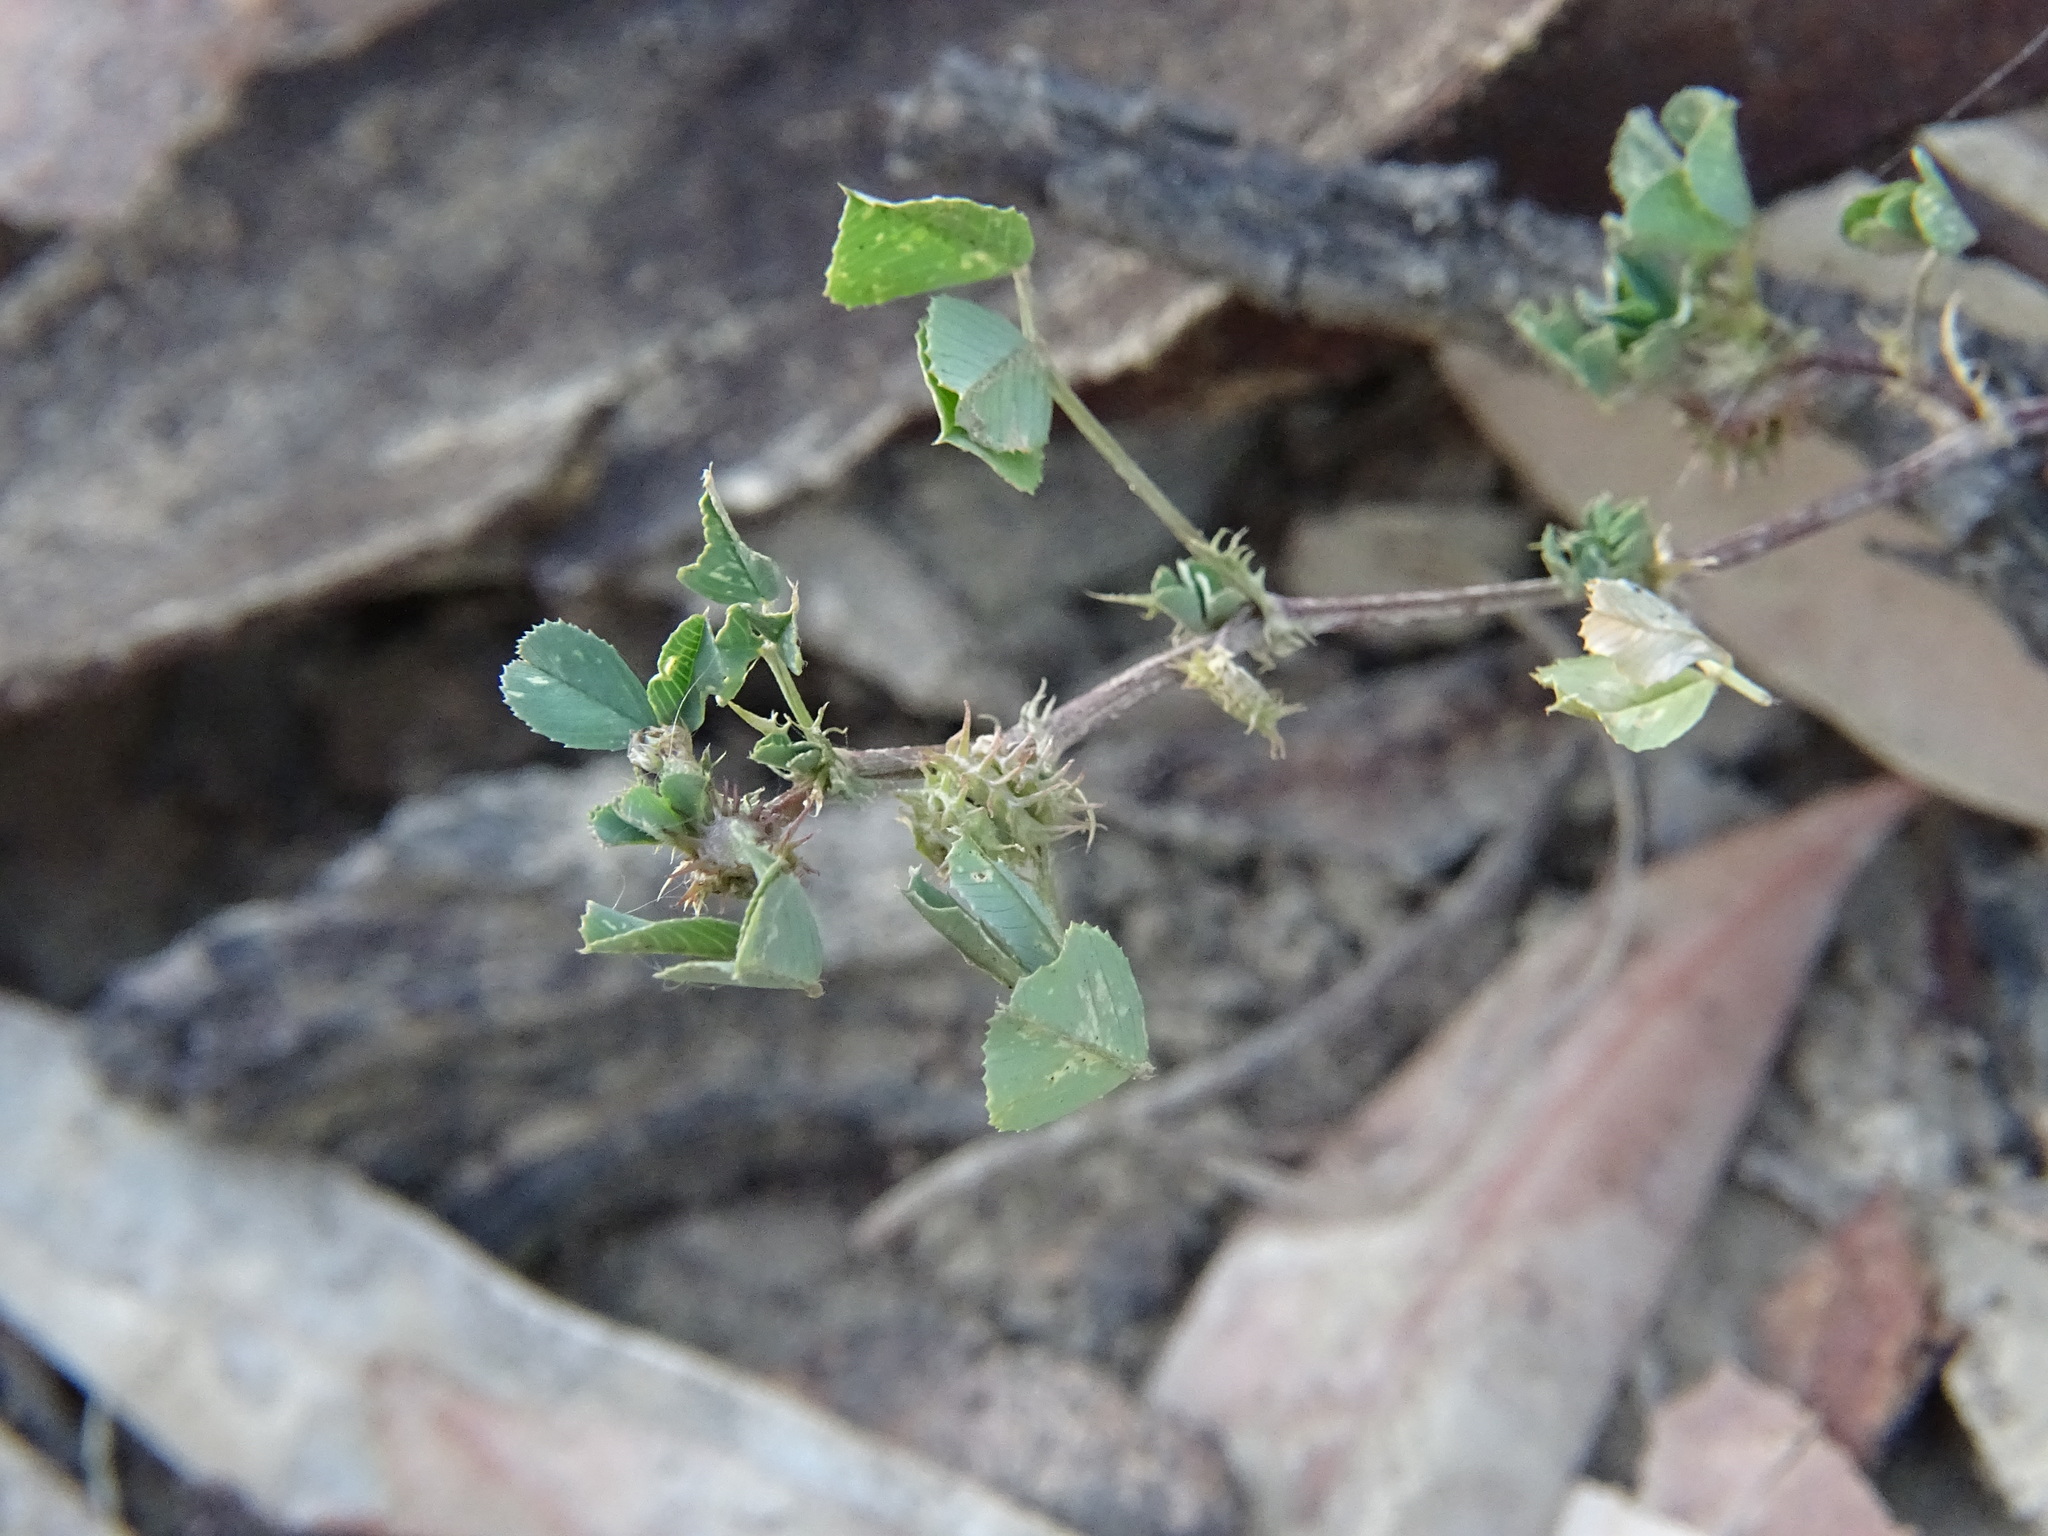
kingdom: Plantae
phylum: Tracheophyta
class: Magnoliopsida
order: Fabales
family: Fabaceae
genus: Medicago
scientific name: Medicago polymorpha
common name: Burclover
